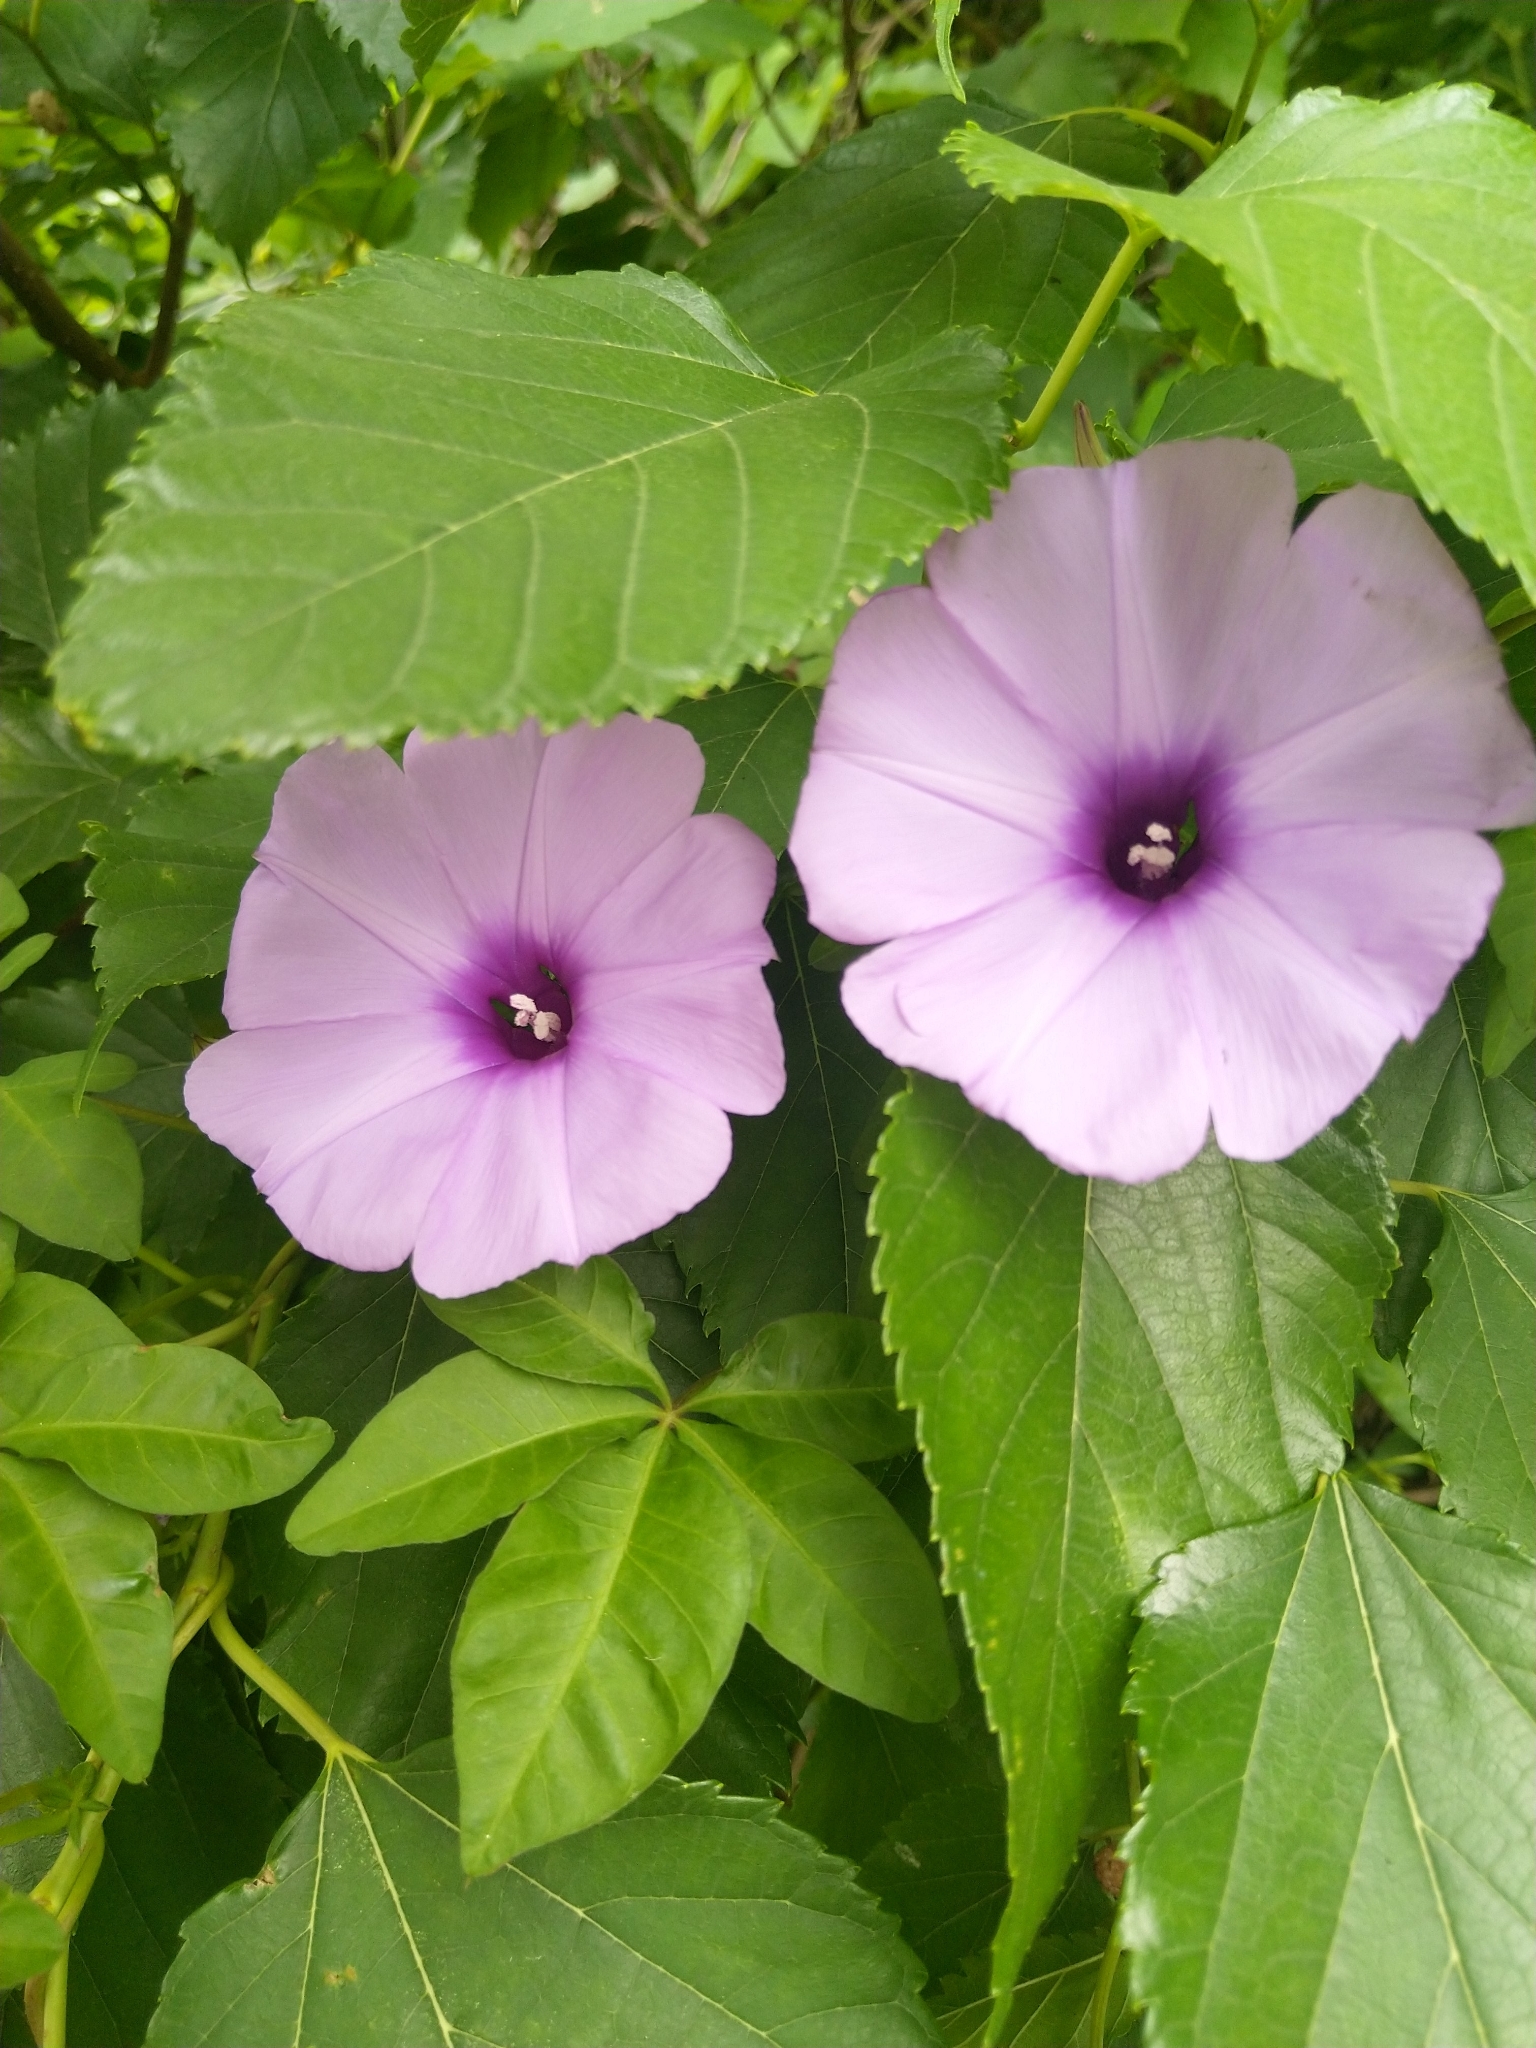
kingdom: Plantae
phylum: Tracheophyta
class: Magnoliopsida
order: Solanales
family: Convolvulaceae
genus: Ipomoea
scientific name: Ipomoea cairica
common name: Mile a minute vine
